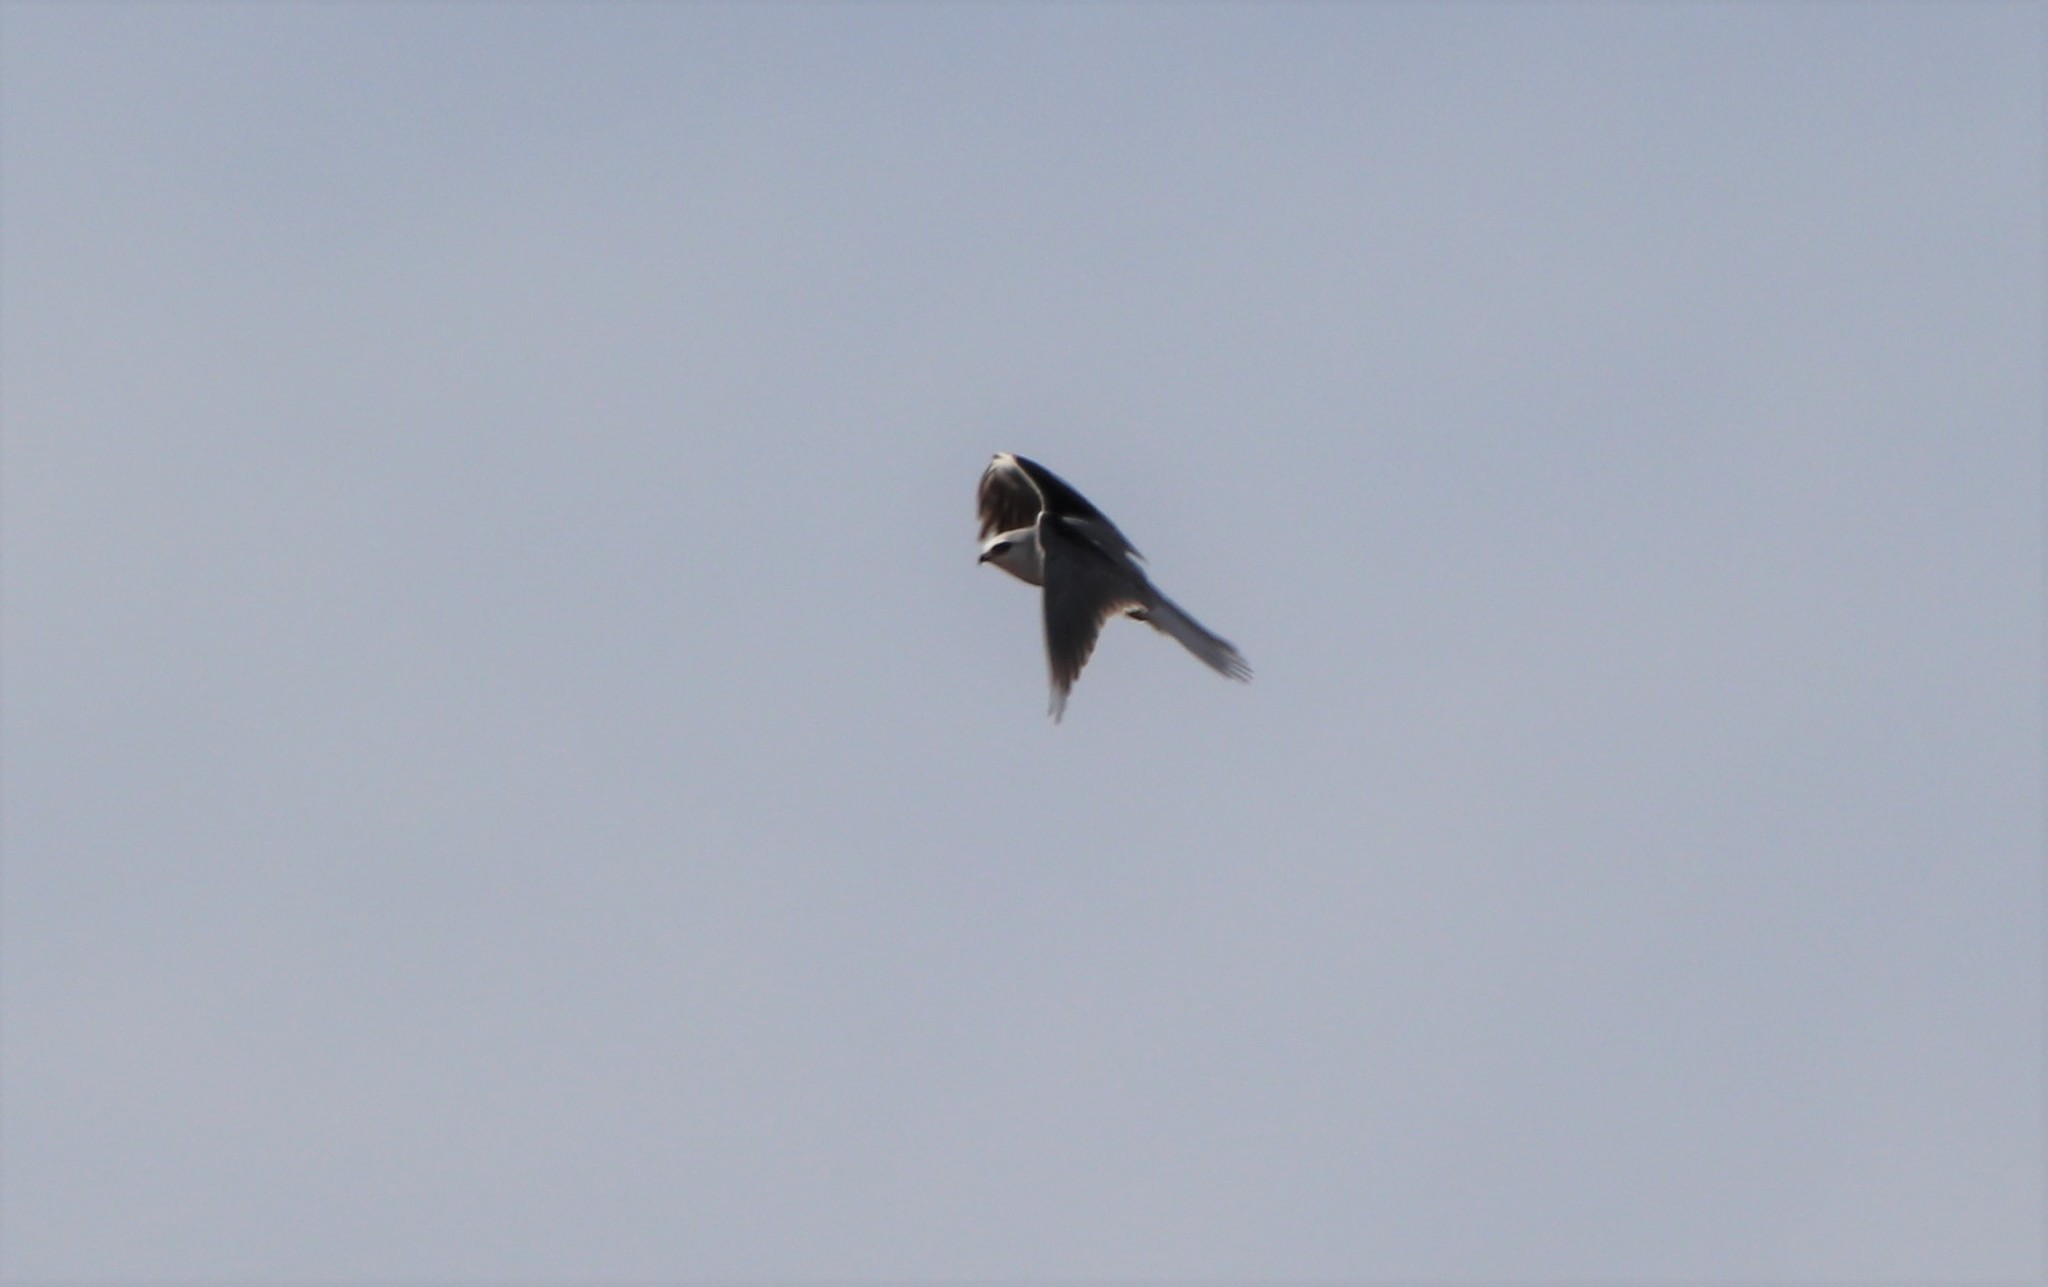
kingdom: Animalia
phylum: Chordata
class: Aves
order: Accipitriformes
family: Accipitridae
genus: Elanus
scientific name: Elanus leucurus
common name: White-tailed kite
